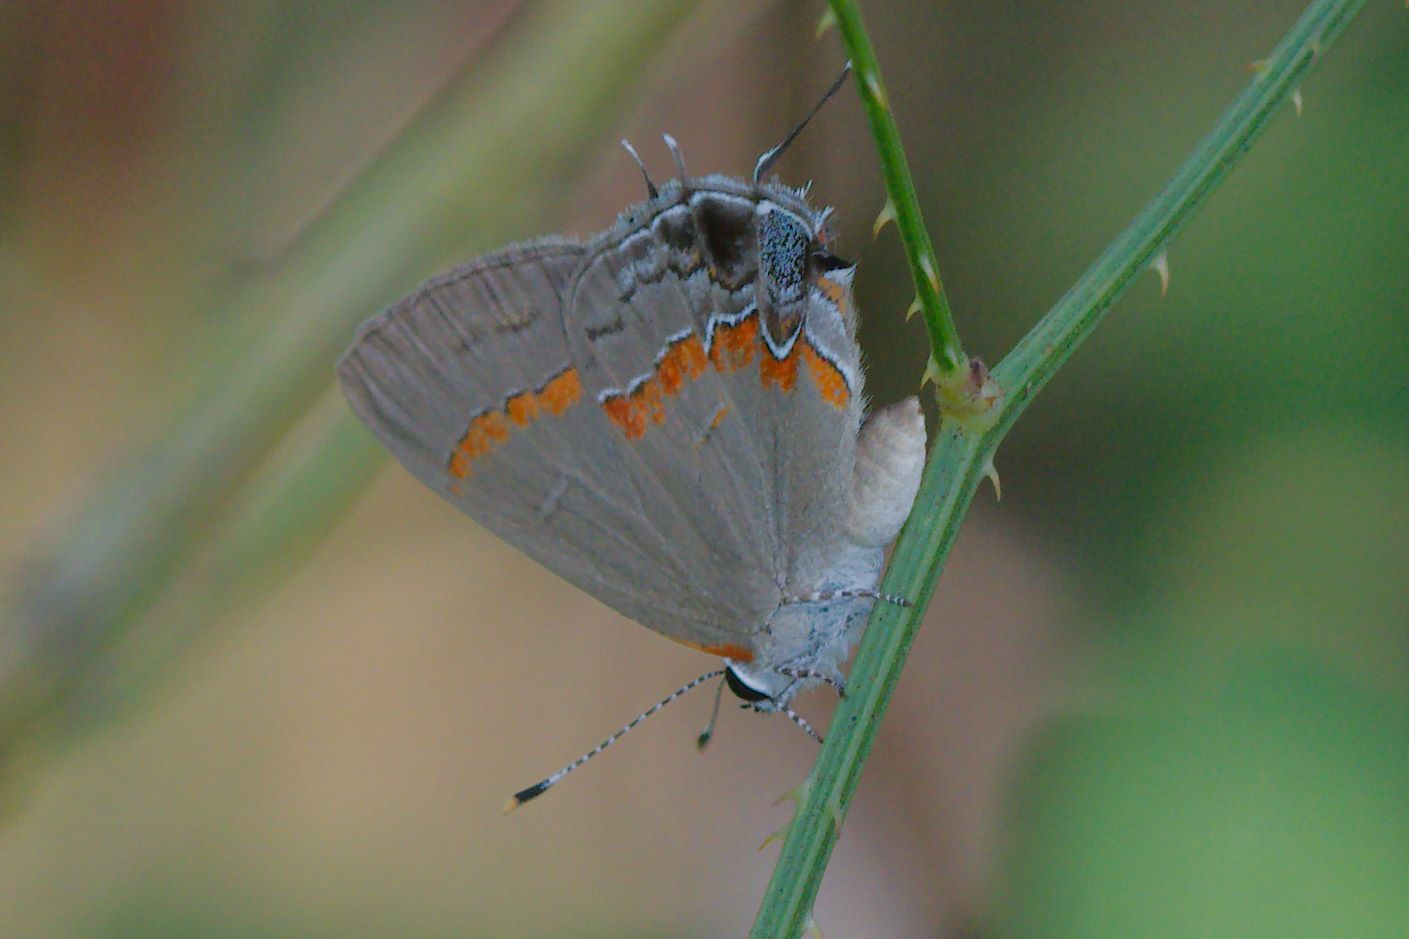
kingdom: Animalia
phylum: Arthropoda
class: Insecta
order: Lepidoptera
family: Lycaenidae
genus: Calycopis
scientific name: Calycopis cecrops
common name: Red-banded hairstreak
